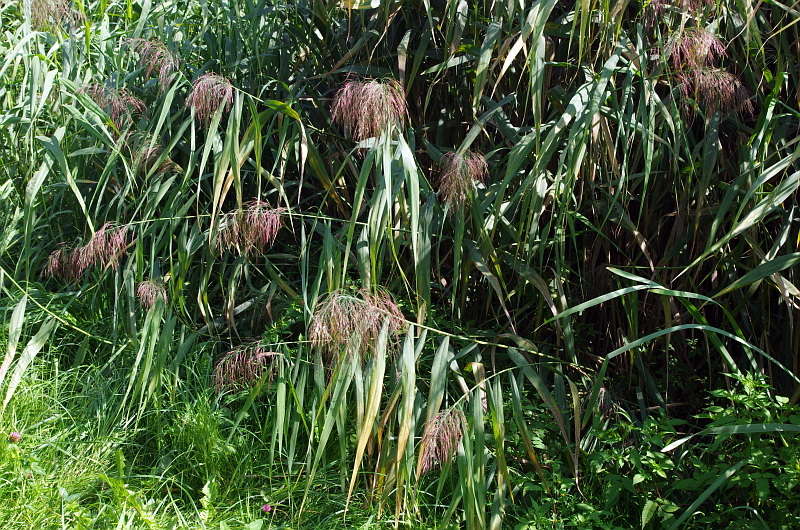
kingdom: Plantae
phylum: Tracheophyta
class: Liliopsida
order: Poales
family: Poaceae
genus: Phragmites
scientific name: Phragmites australis
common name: Common reed
